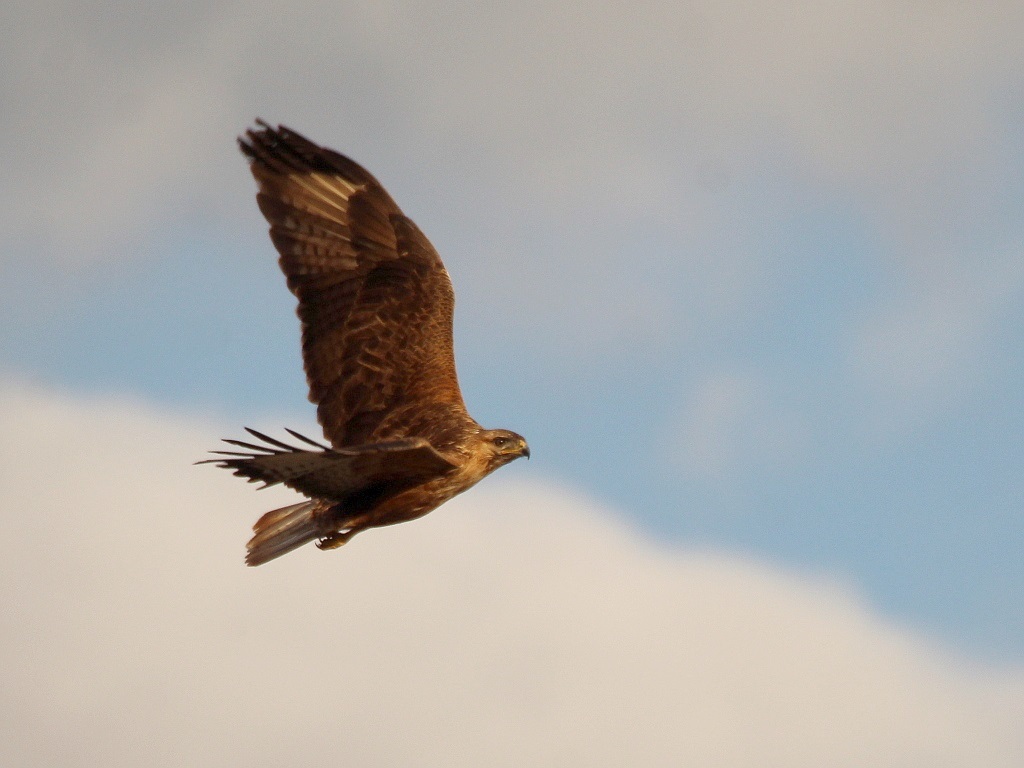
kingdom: Animalia
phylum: Chordata
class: Aves
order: Accipitriformes
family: Accipitridae
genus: Buteo
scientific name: Buteo rufinus
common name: Long-legged buzzard
